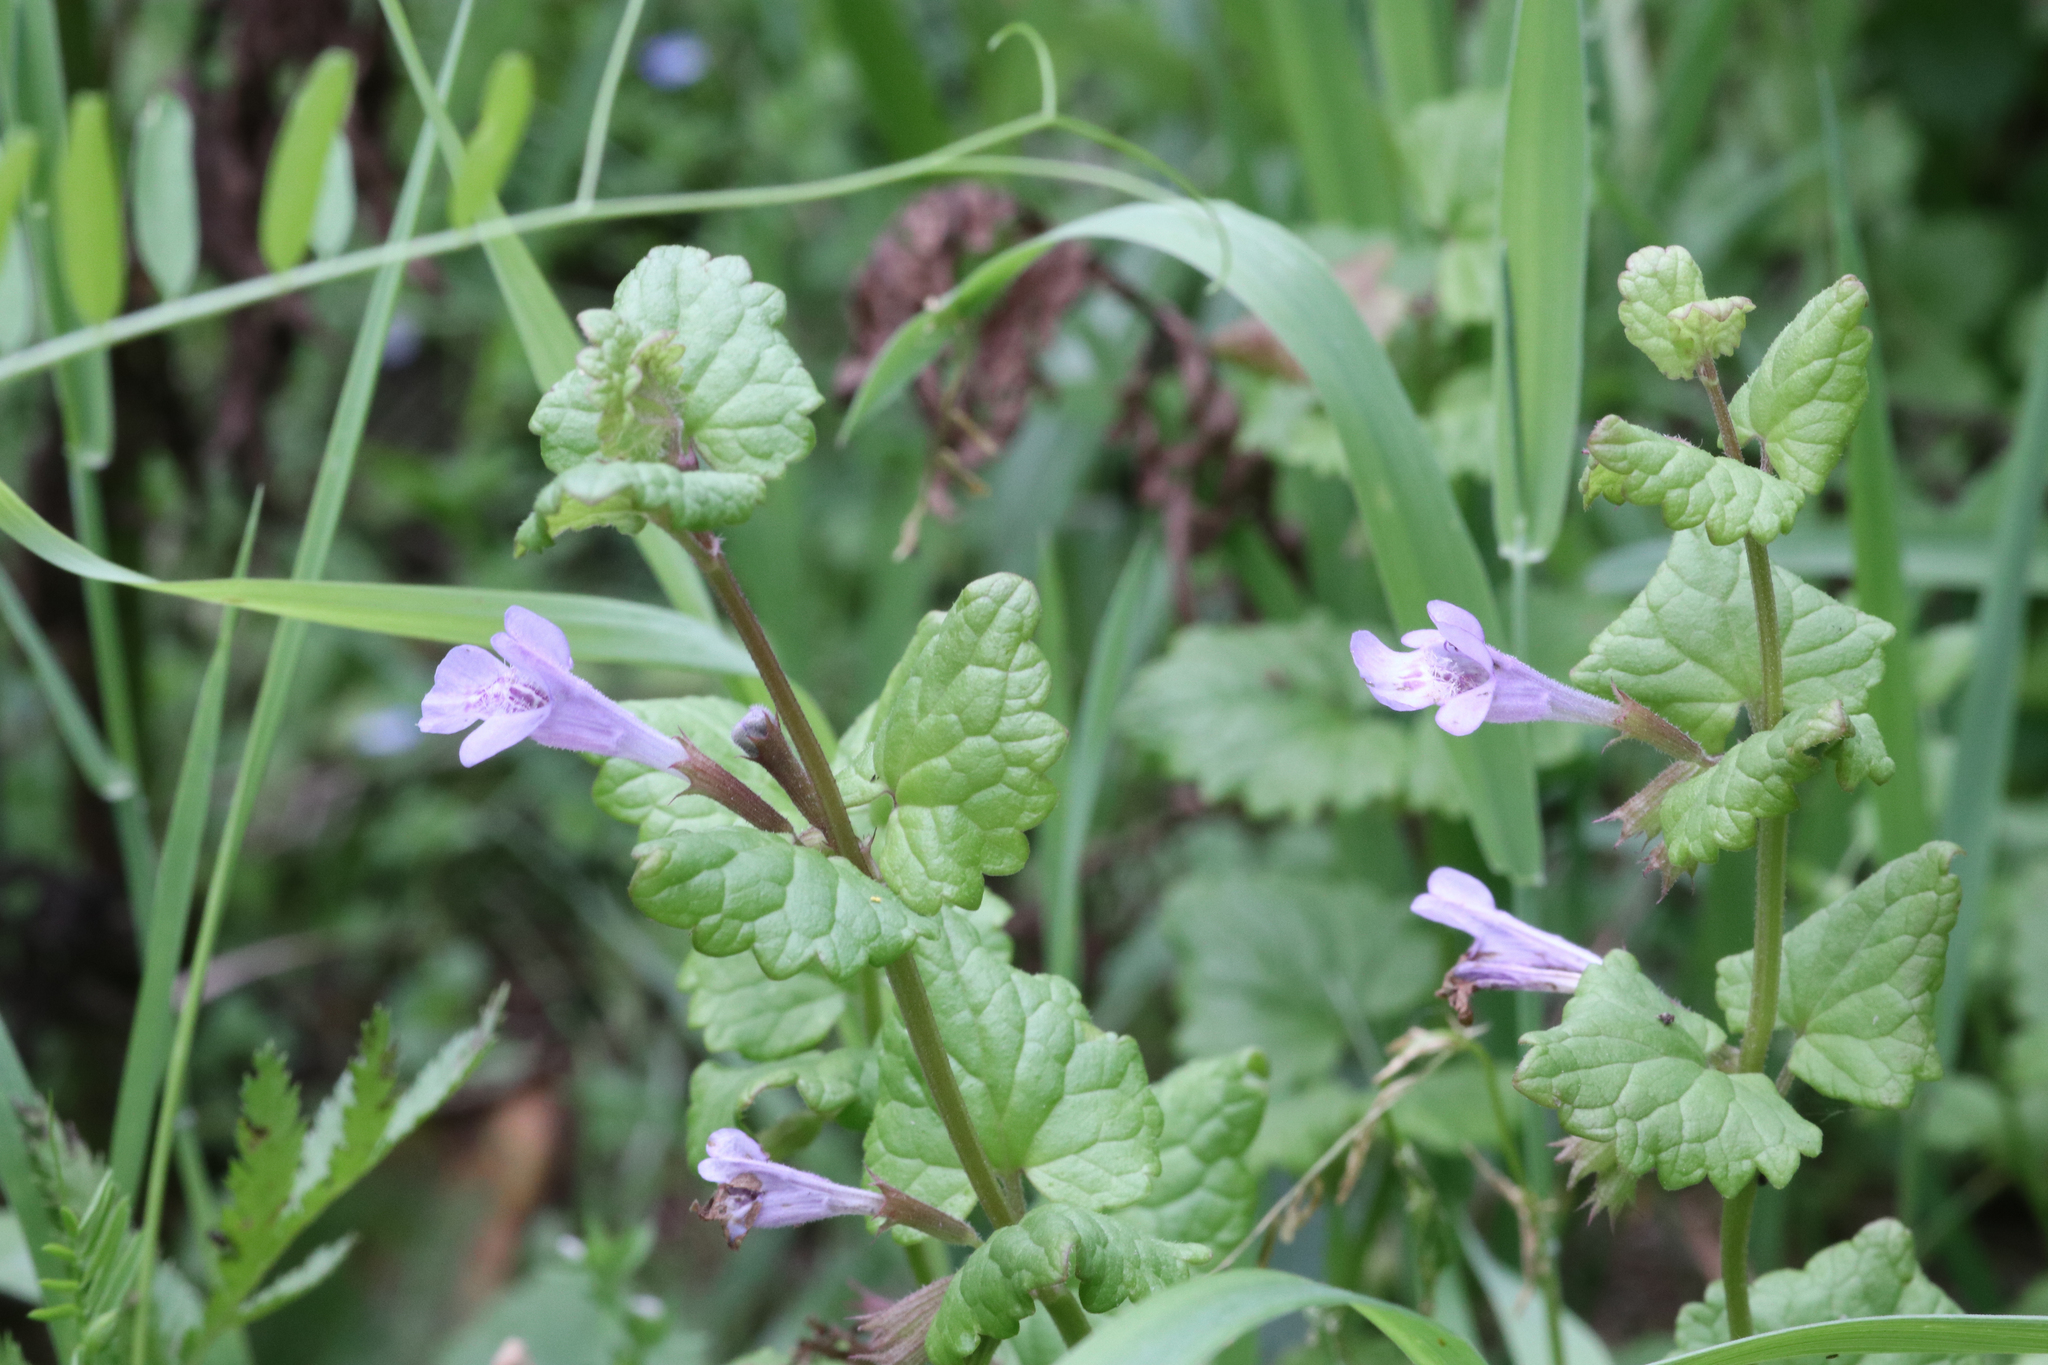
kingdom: Plantae
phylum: Tracheophyta
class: Magnoliopsida
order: Lamiales
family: Lamiaceae
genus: Glechoma
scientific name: Glechoma hederacea
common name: Ground ivy
